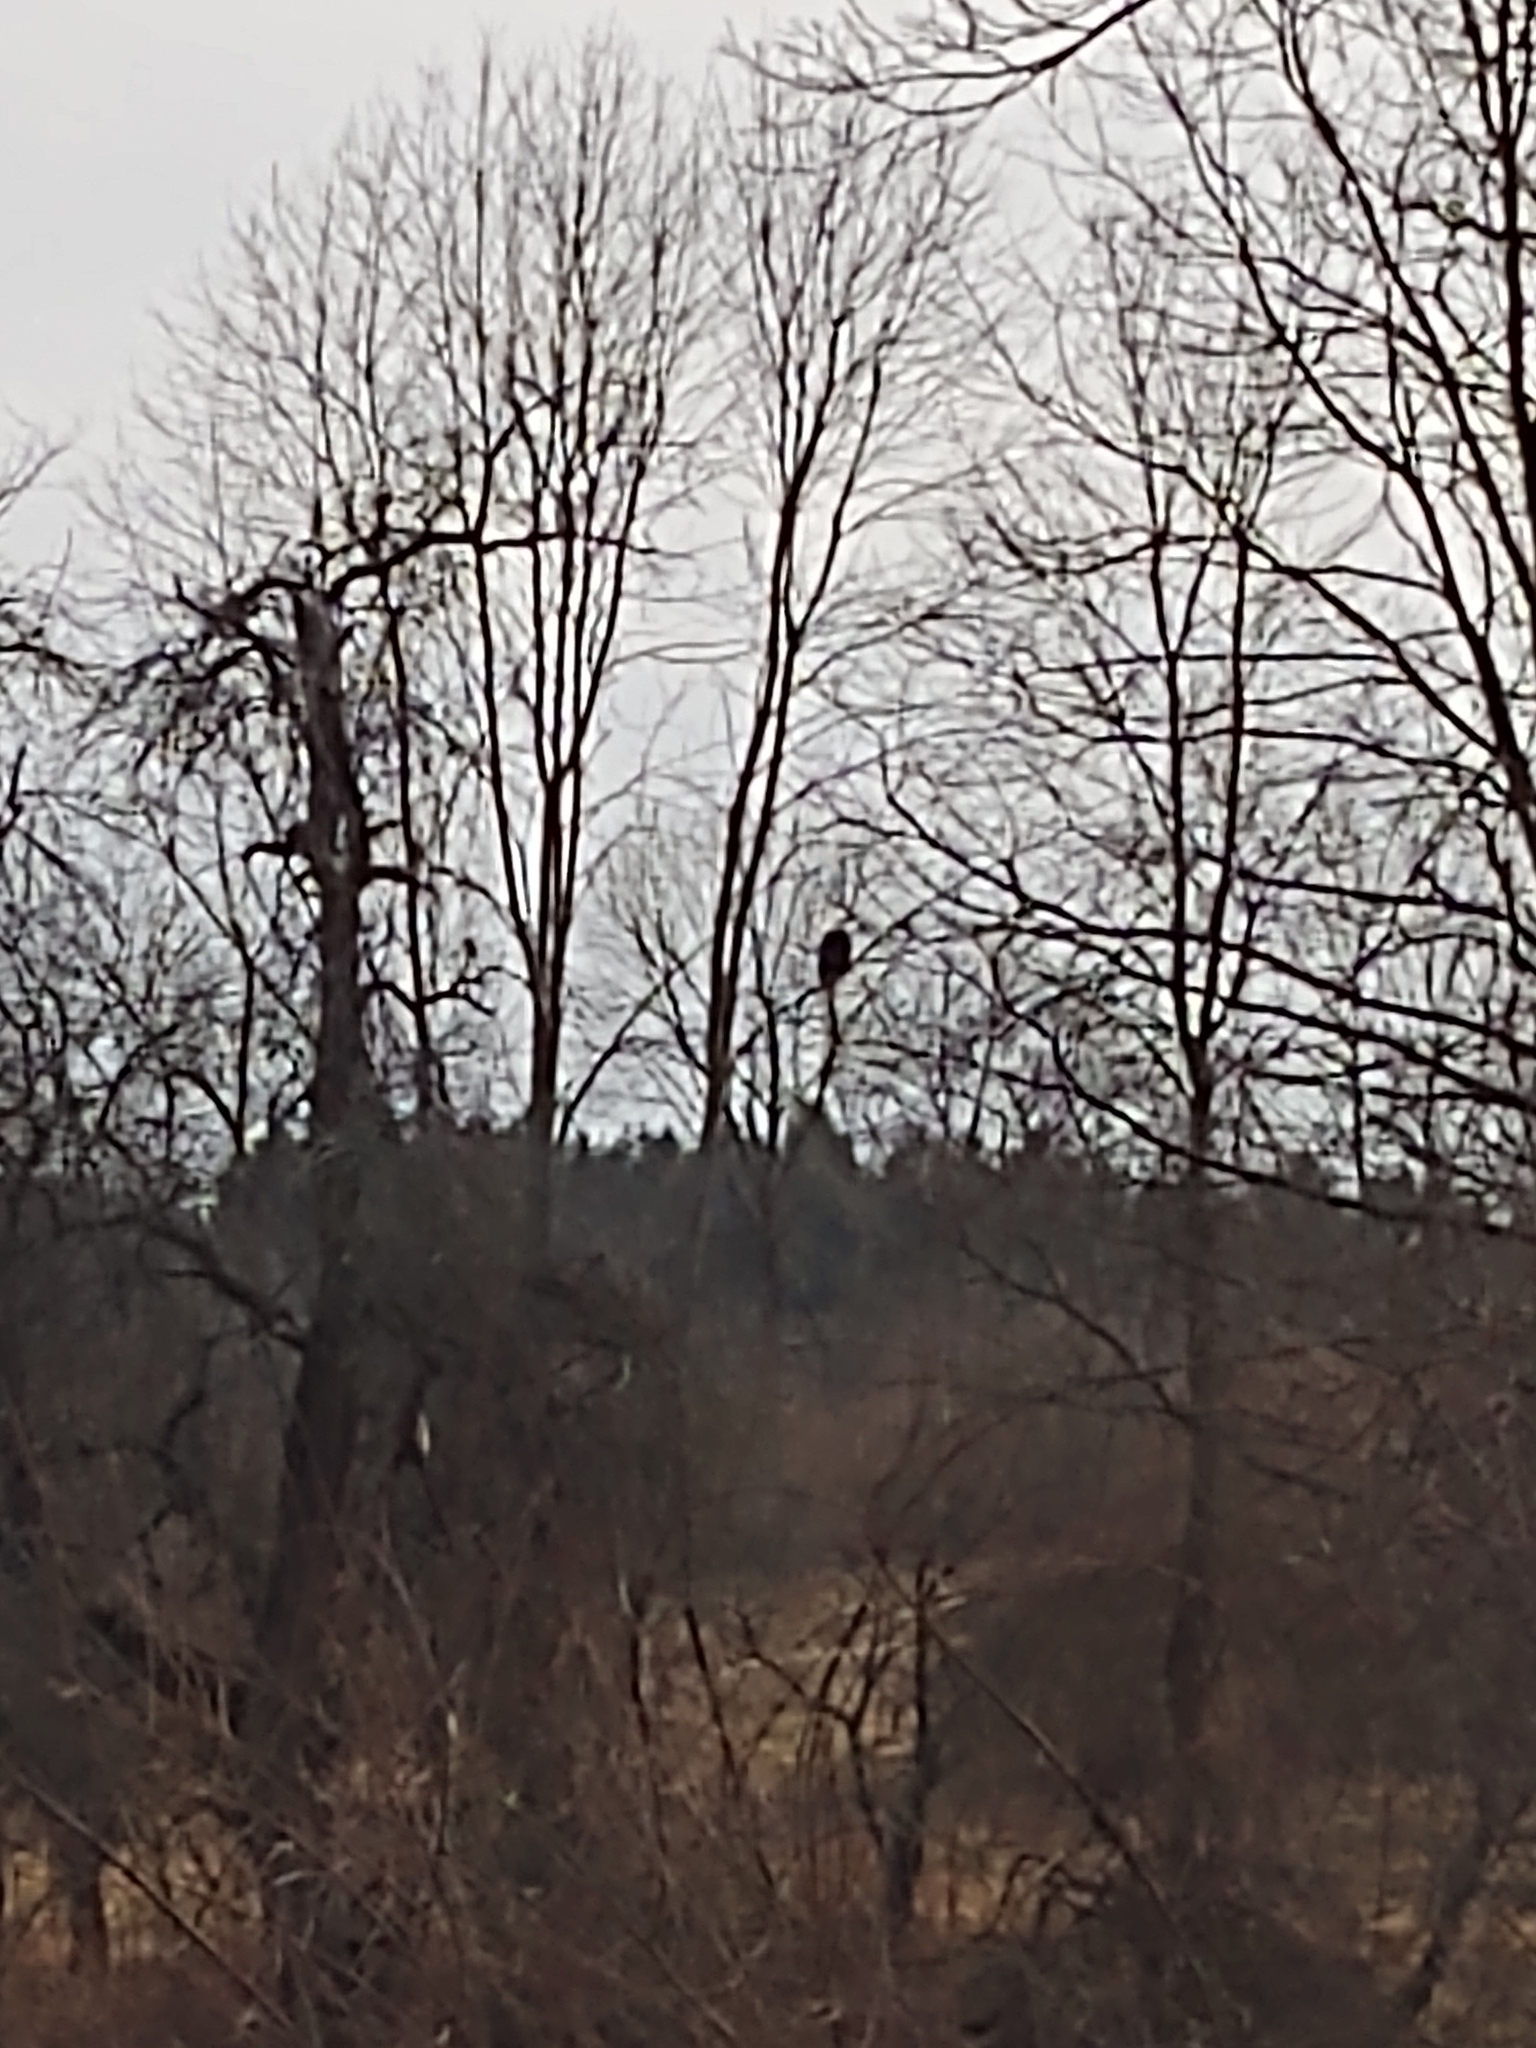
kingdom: Animalia
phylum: Chordata
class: Aves
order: Accipitriformes
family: Accipitridae
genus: Haliaeetus
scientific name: Haliaeetus leucocephalus
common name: Bald eagle
